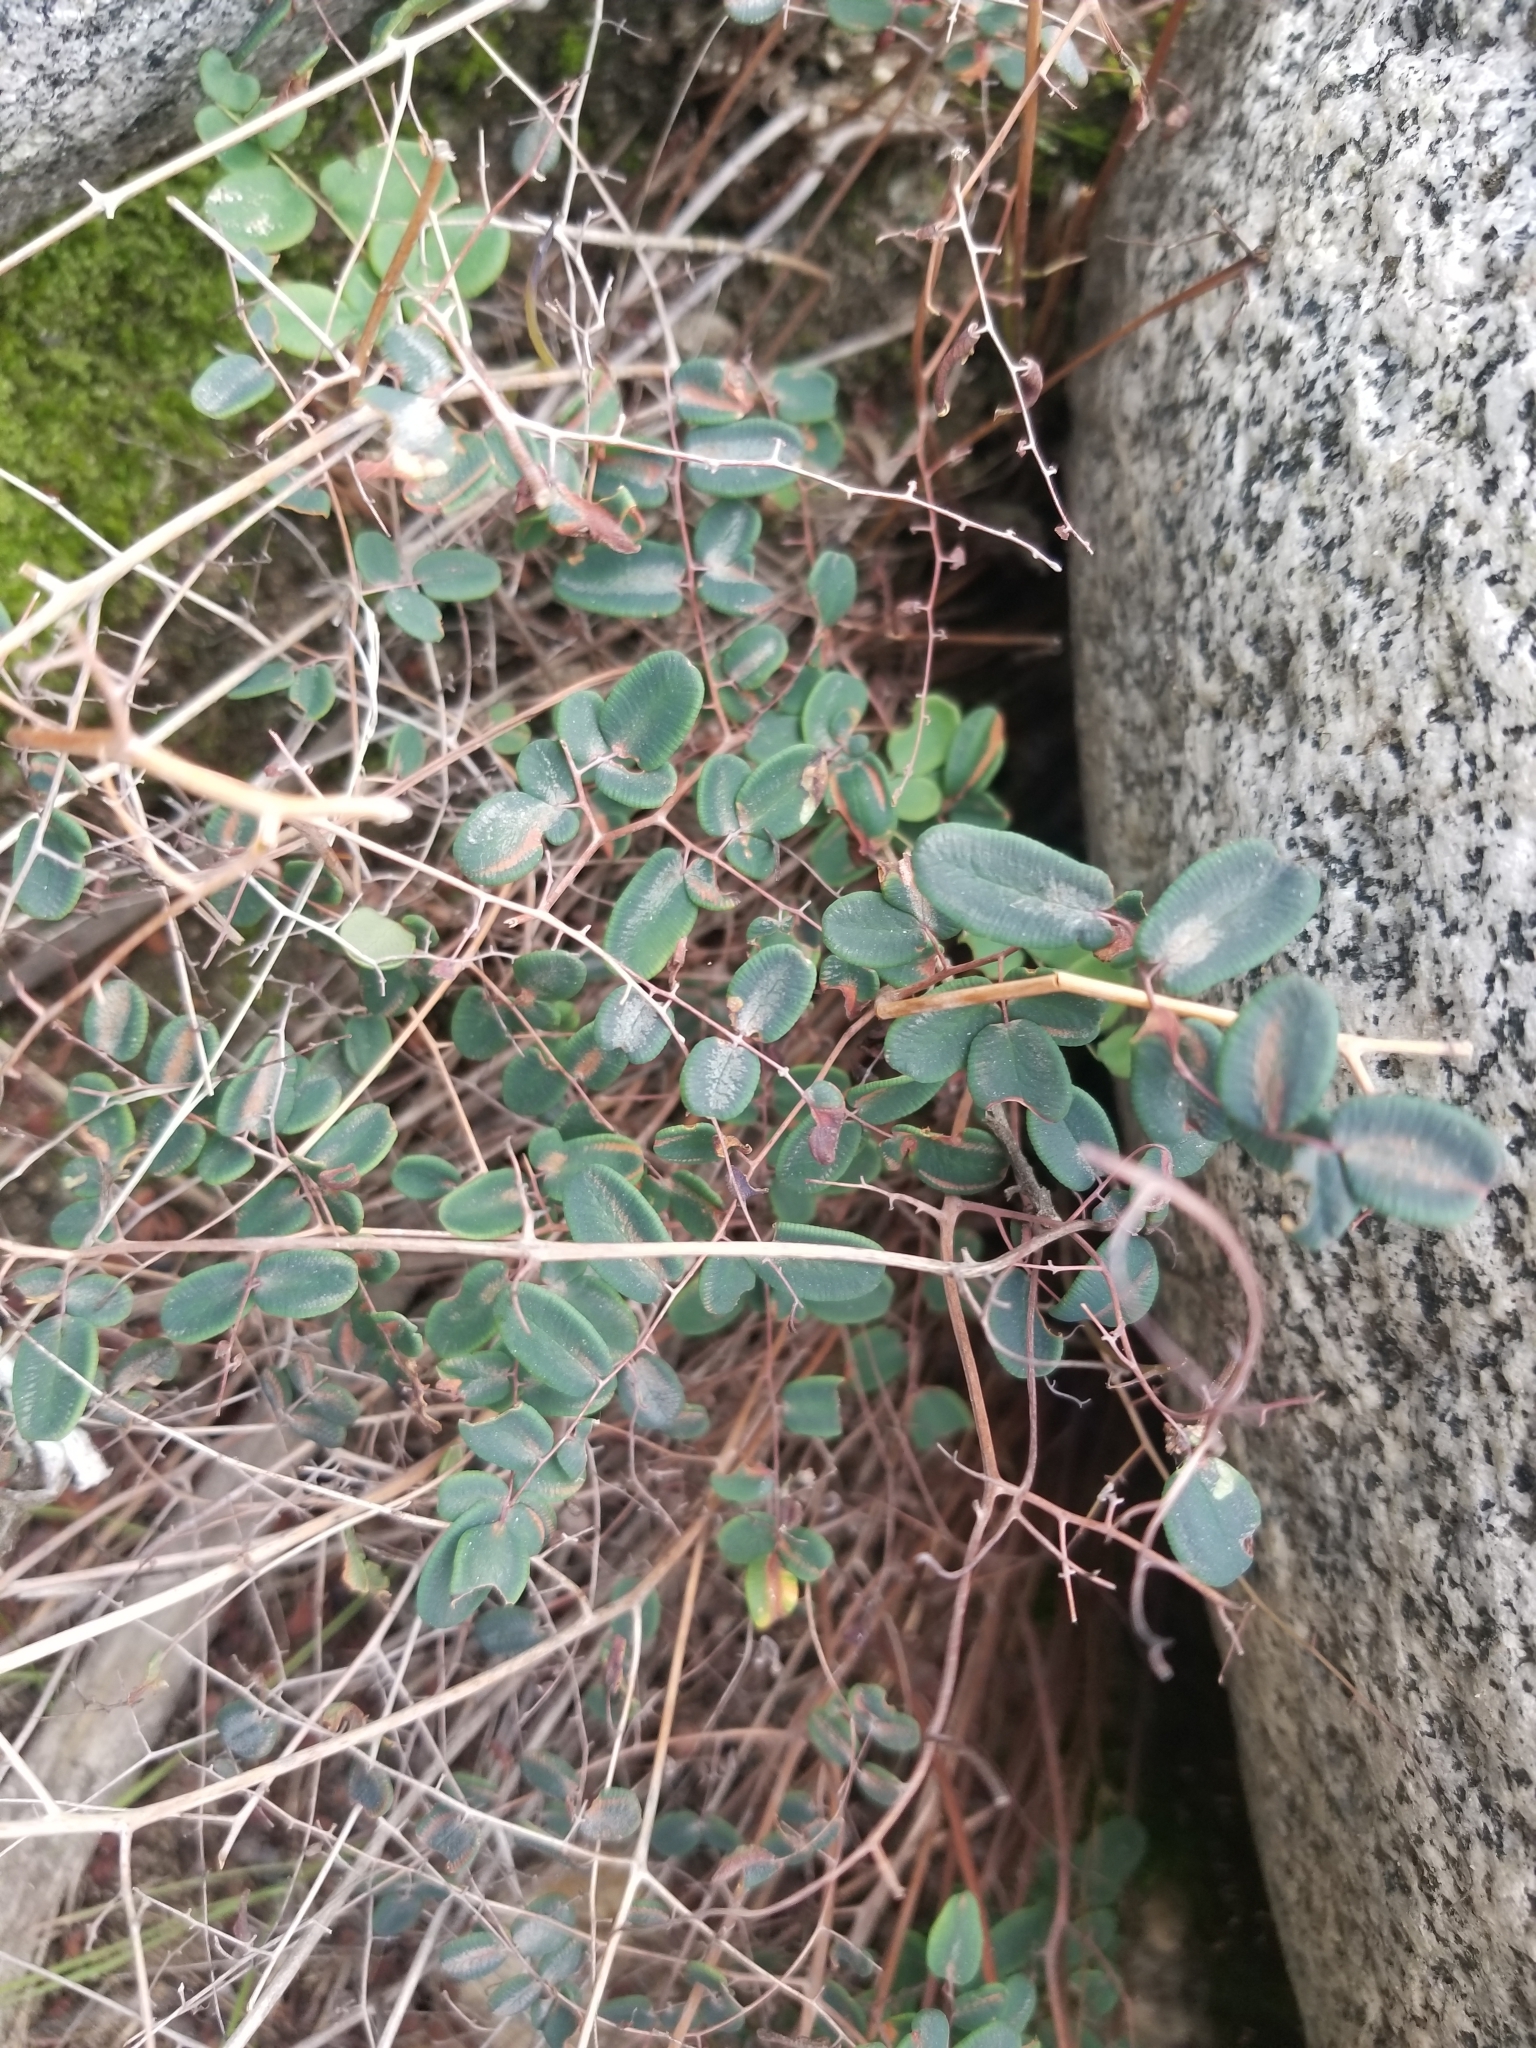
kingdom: Plantae
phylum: Tracheophyta
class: Polypodiopsida
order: Polypodiales
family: Pteridaceae
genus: Pellaea
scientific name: Pellaea andromedifolia
